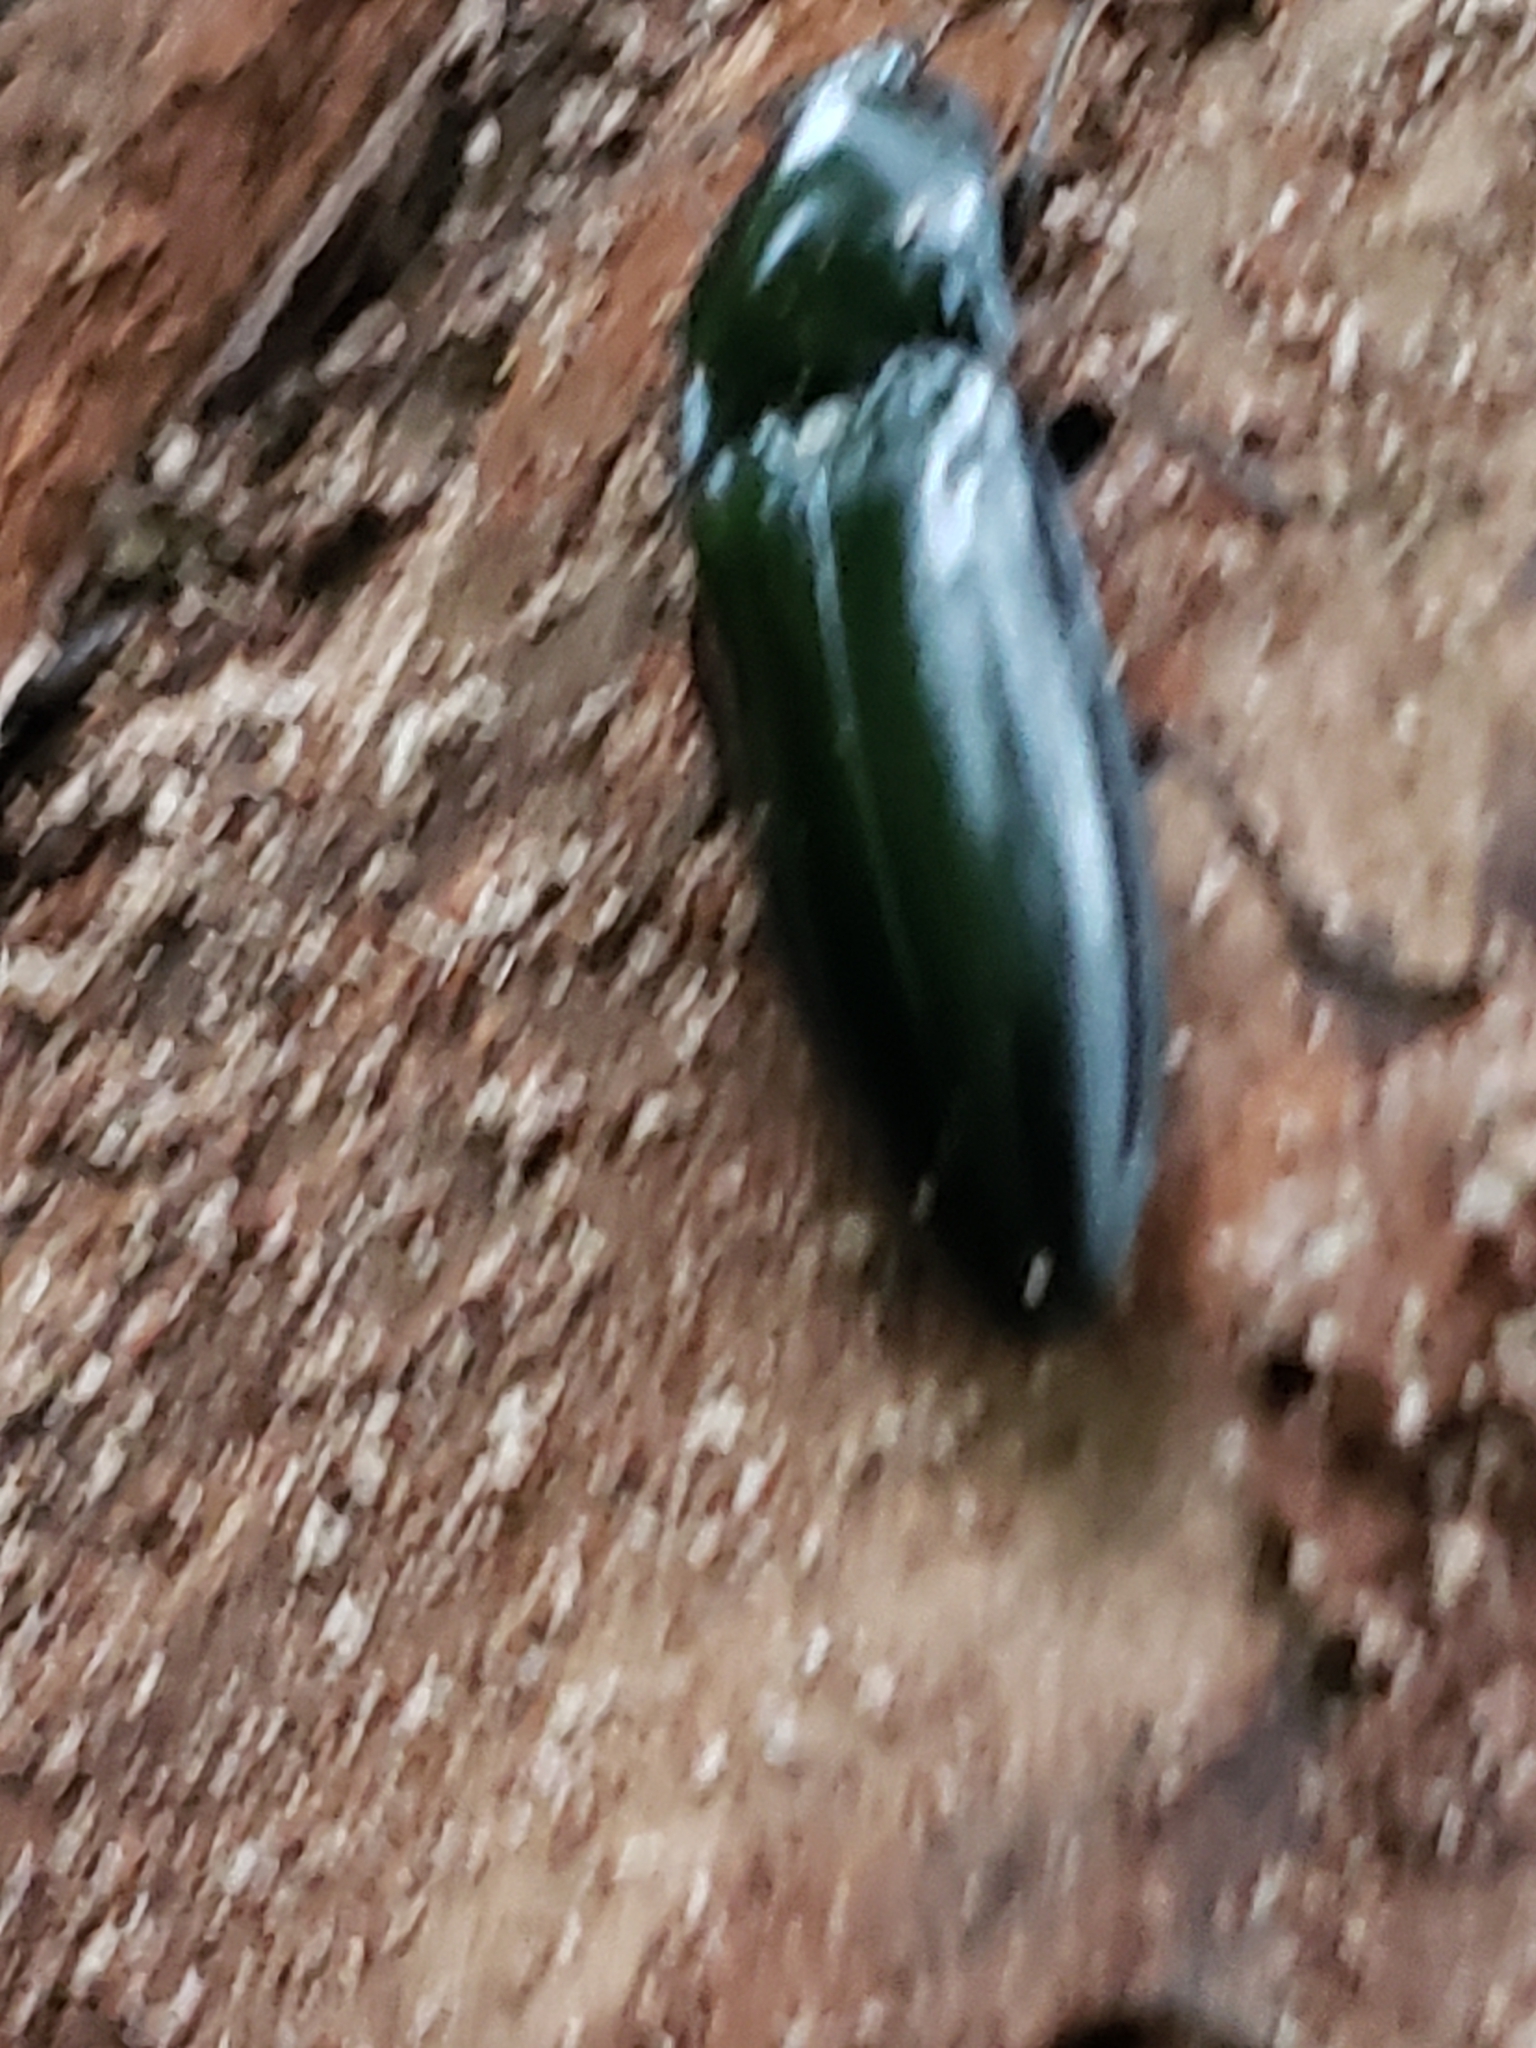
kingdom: Animalia
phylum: Arthropoda
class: Insecta
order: Coleoptera
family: Elateridae
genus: Melanactes
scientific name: Melanactes piceus
